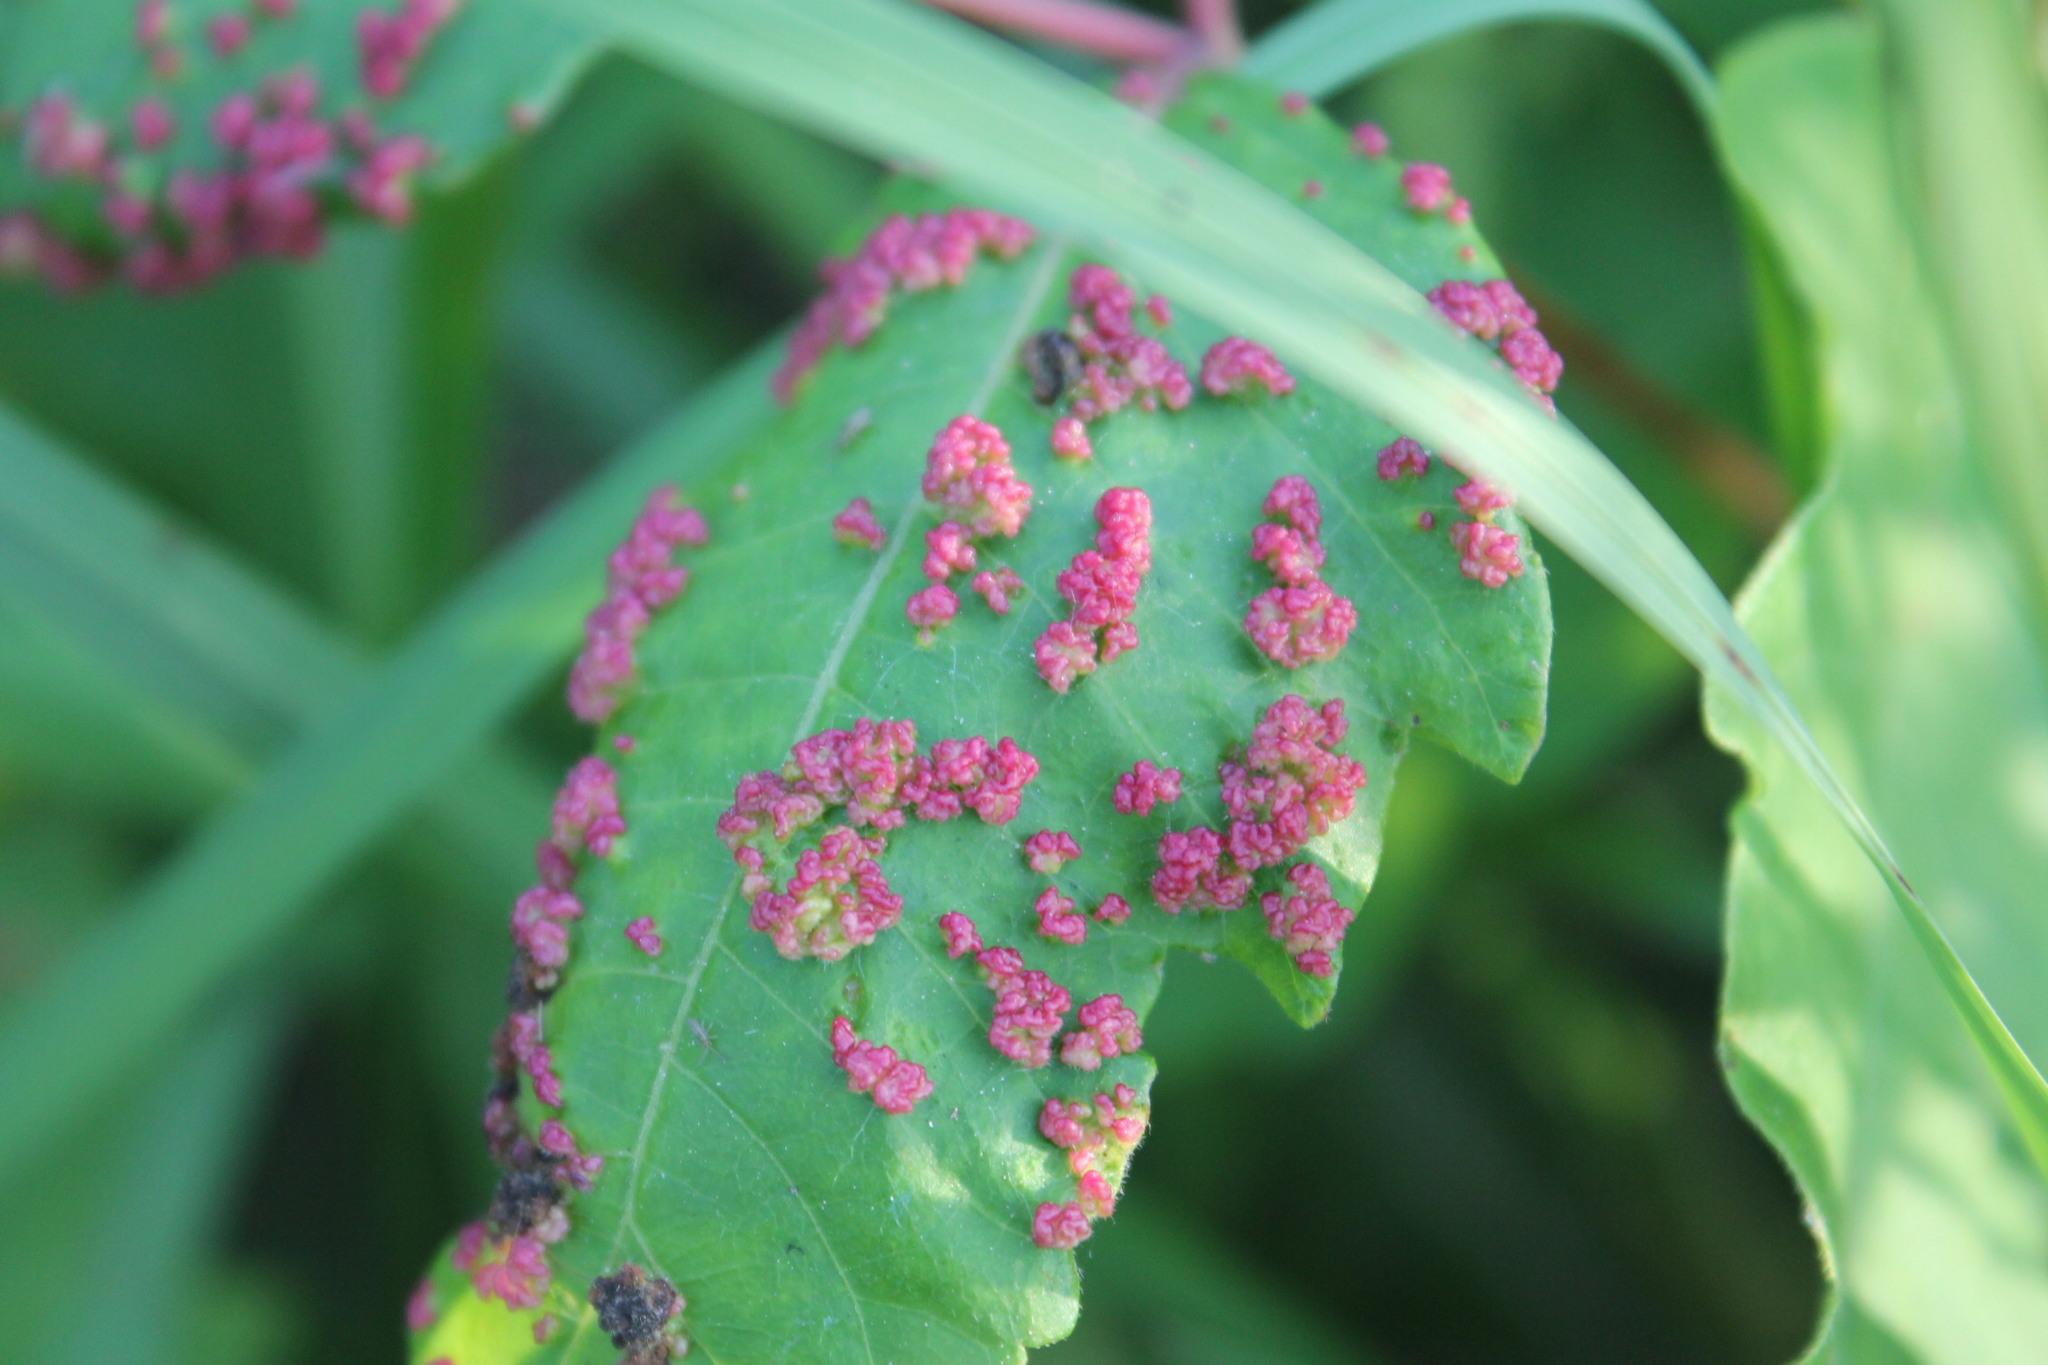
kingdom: Animalia
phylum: Arthropoda
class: Arachnida
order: Trombidiformes
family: Eriophyidae
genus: Aculops
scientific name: Aculops
